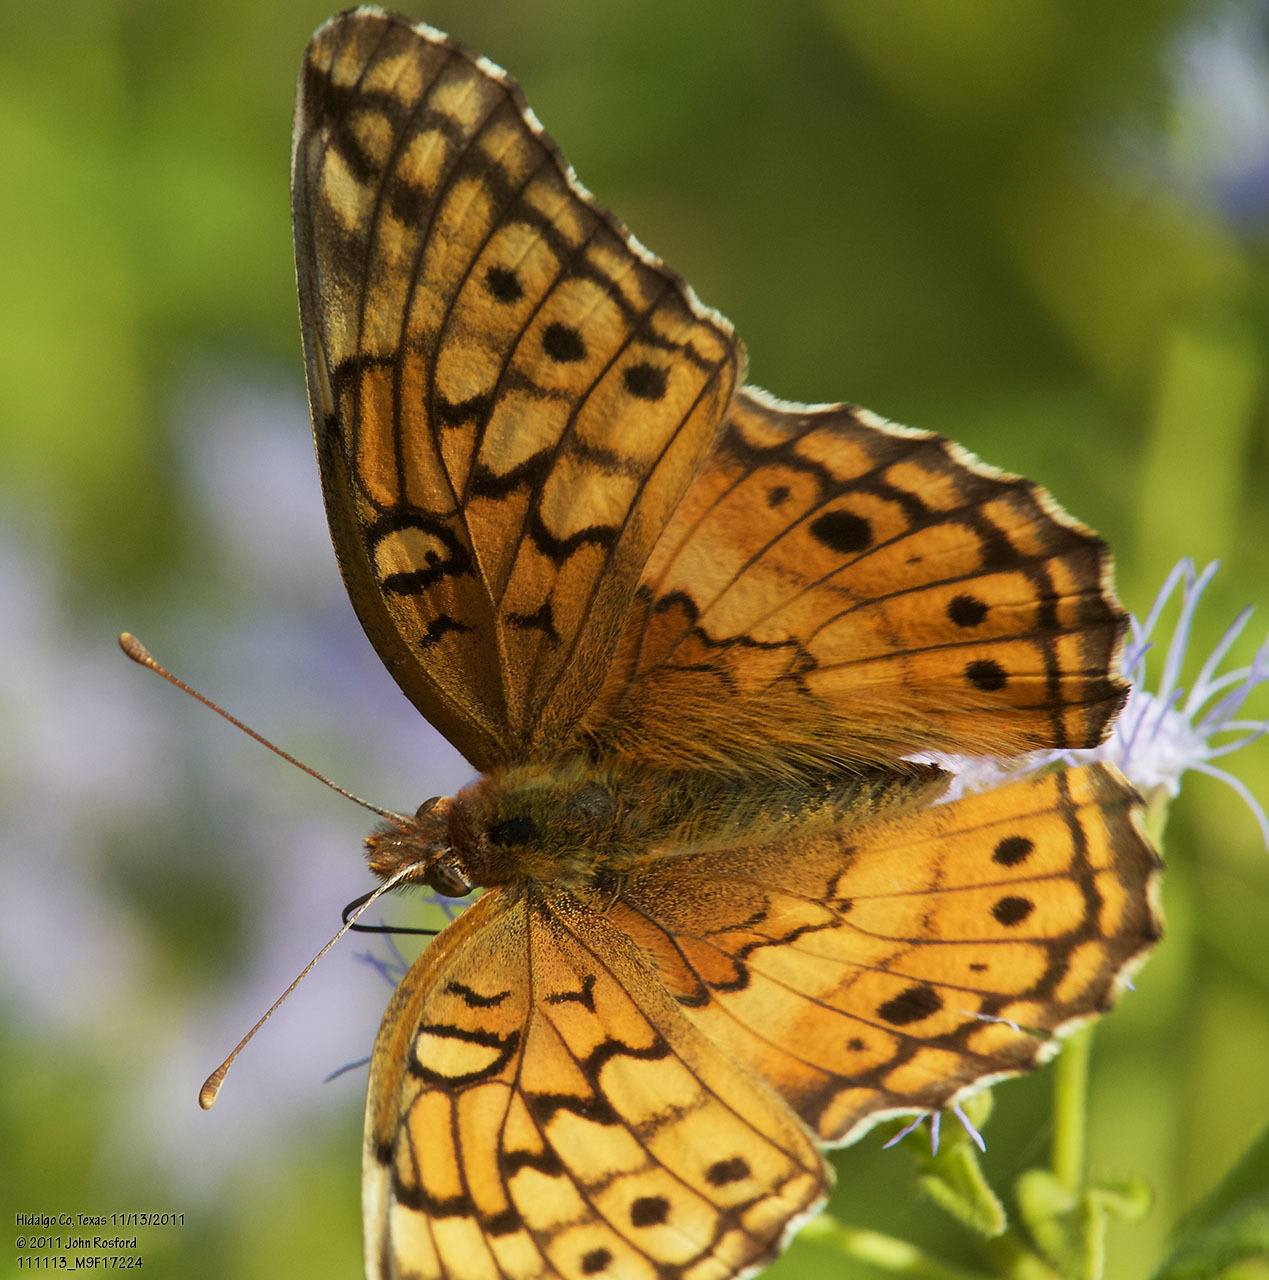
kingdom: Animalia
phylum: Arthropoda
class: Insecta
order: Lepidoptera
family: Nymphalidae
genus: Euptoieta
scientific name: Euptoieta claudia
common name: Variegated fritillary
